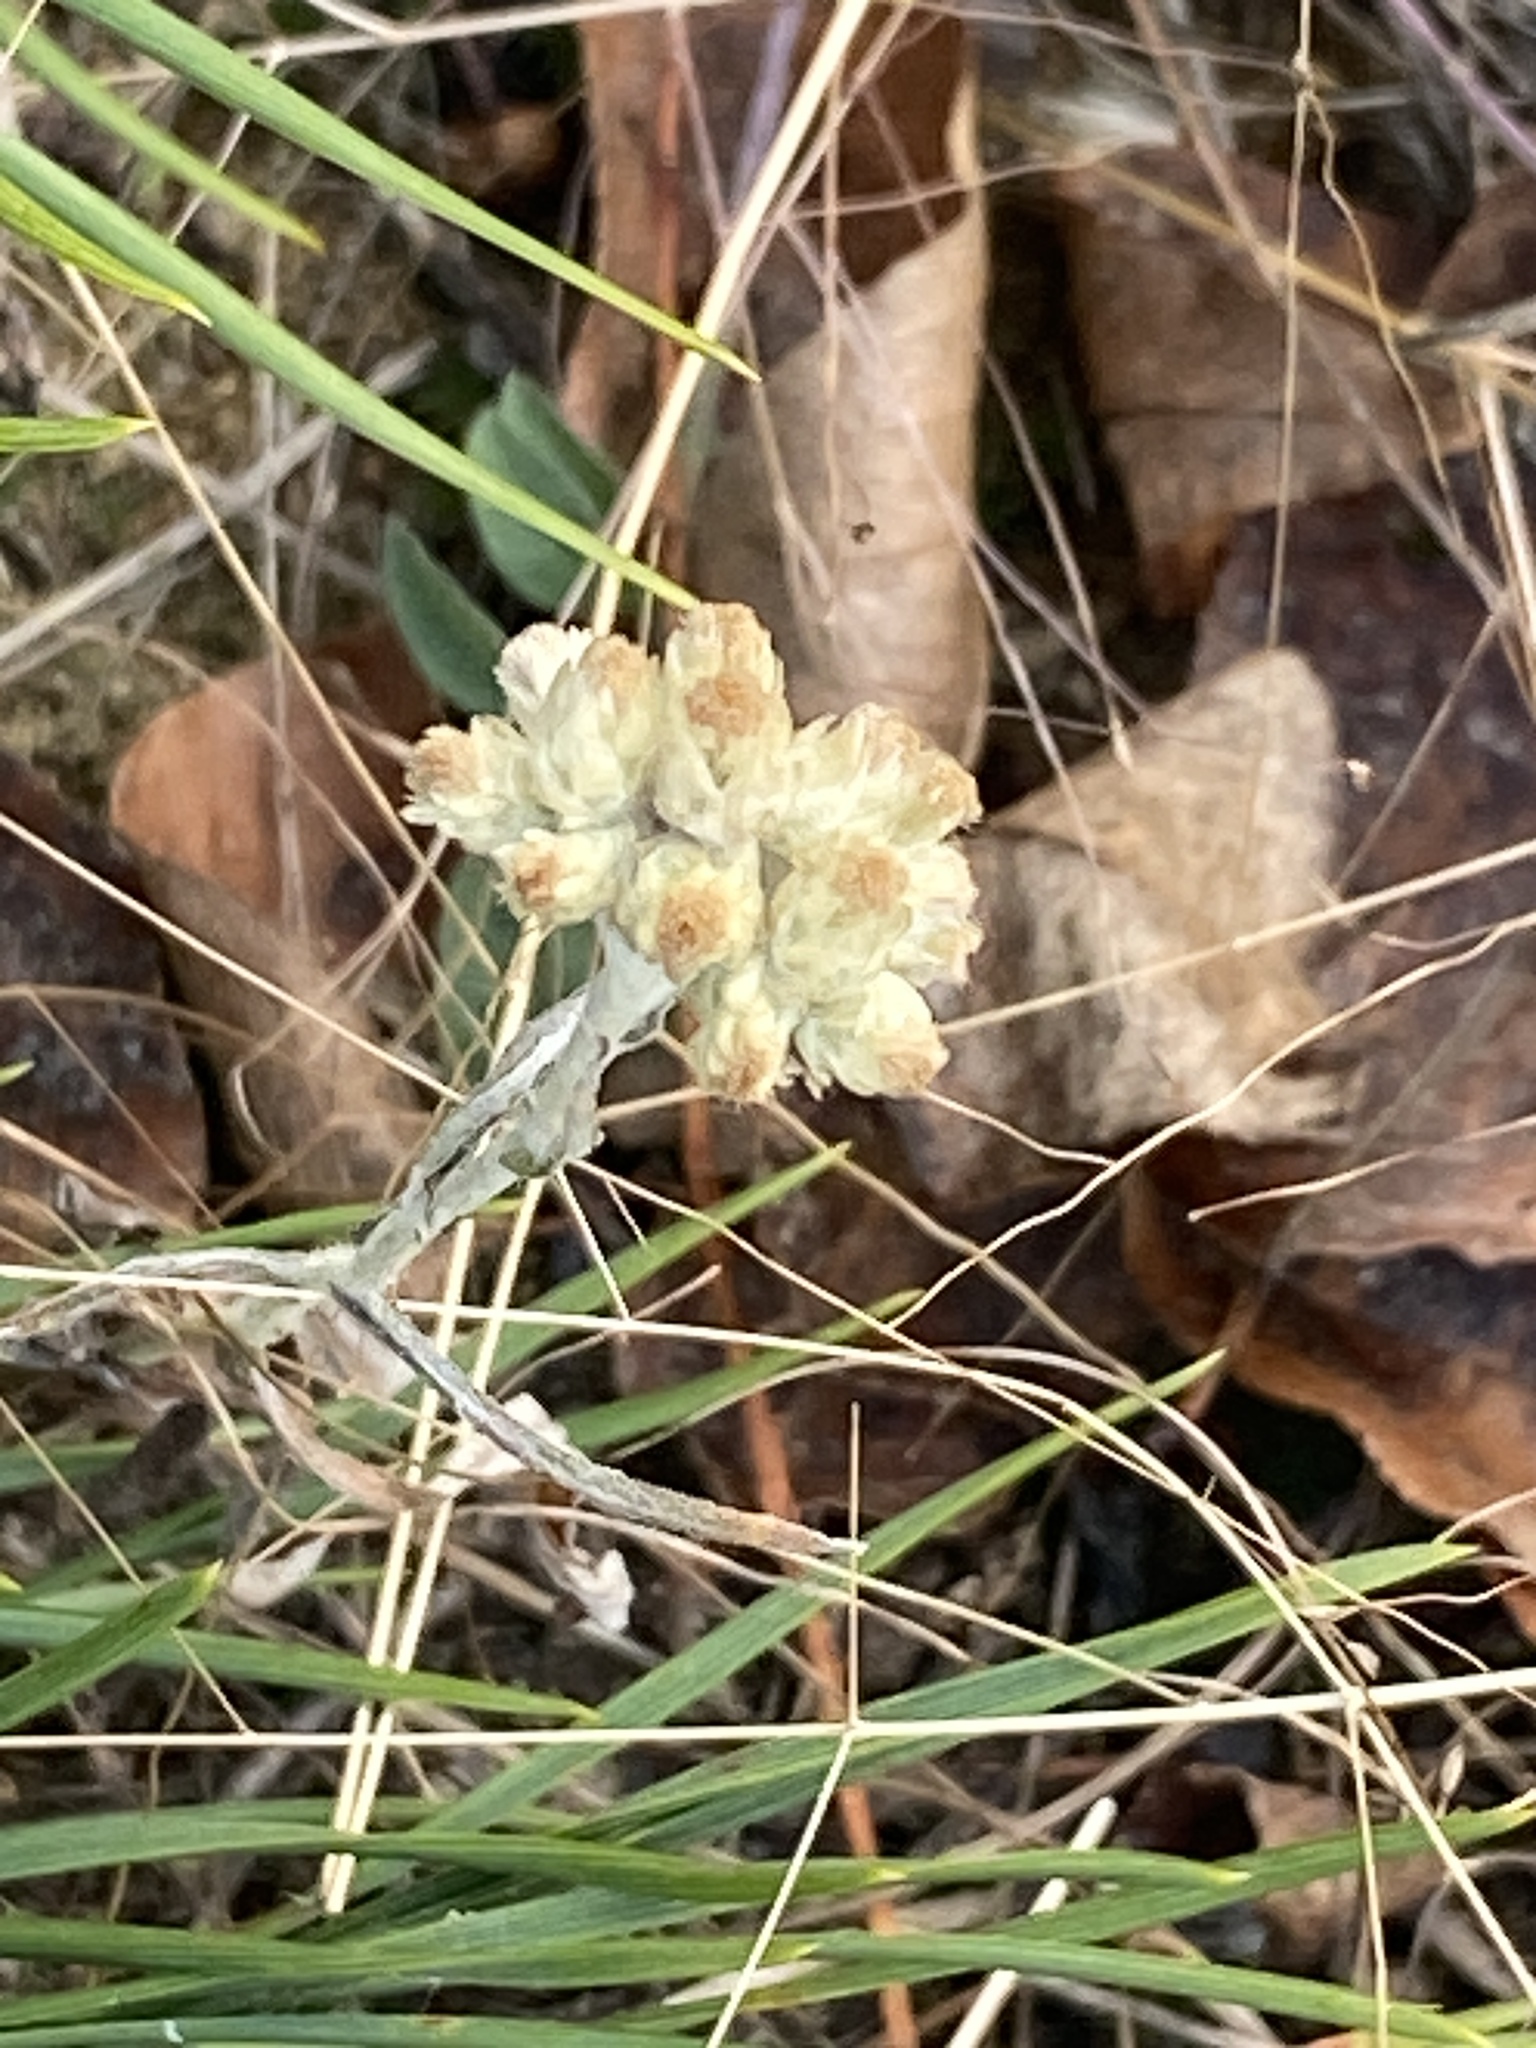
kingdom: Plantae
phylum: Tracheophyta
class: Magnoliopsida
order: Asterales
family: Asteraceae
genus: Pseudognaphalium
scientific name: Pseudognaphalium obtusifolium
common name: Eastern rabbit-tobacco
